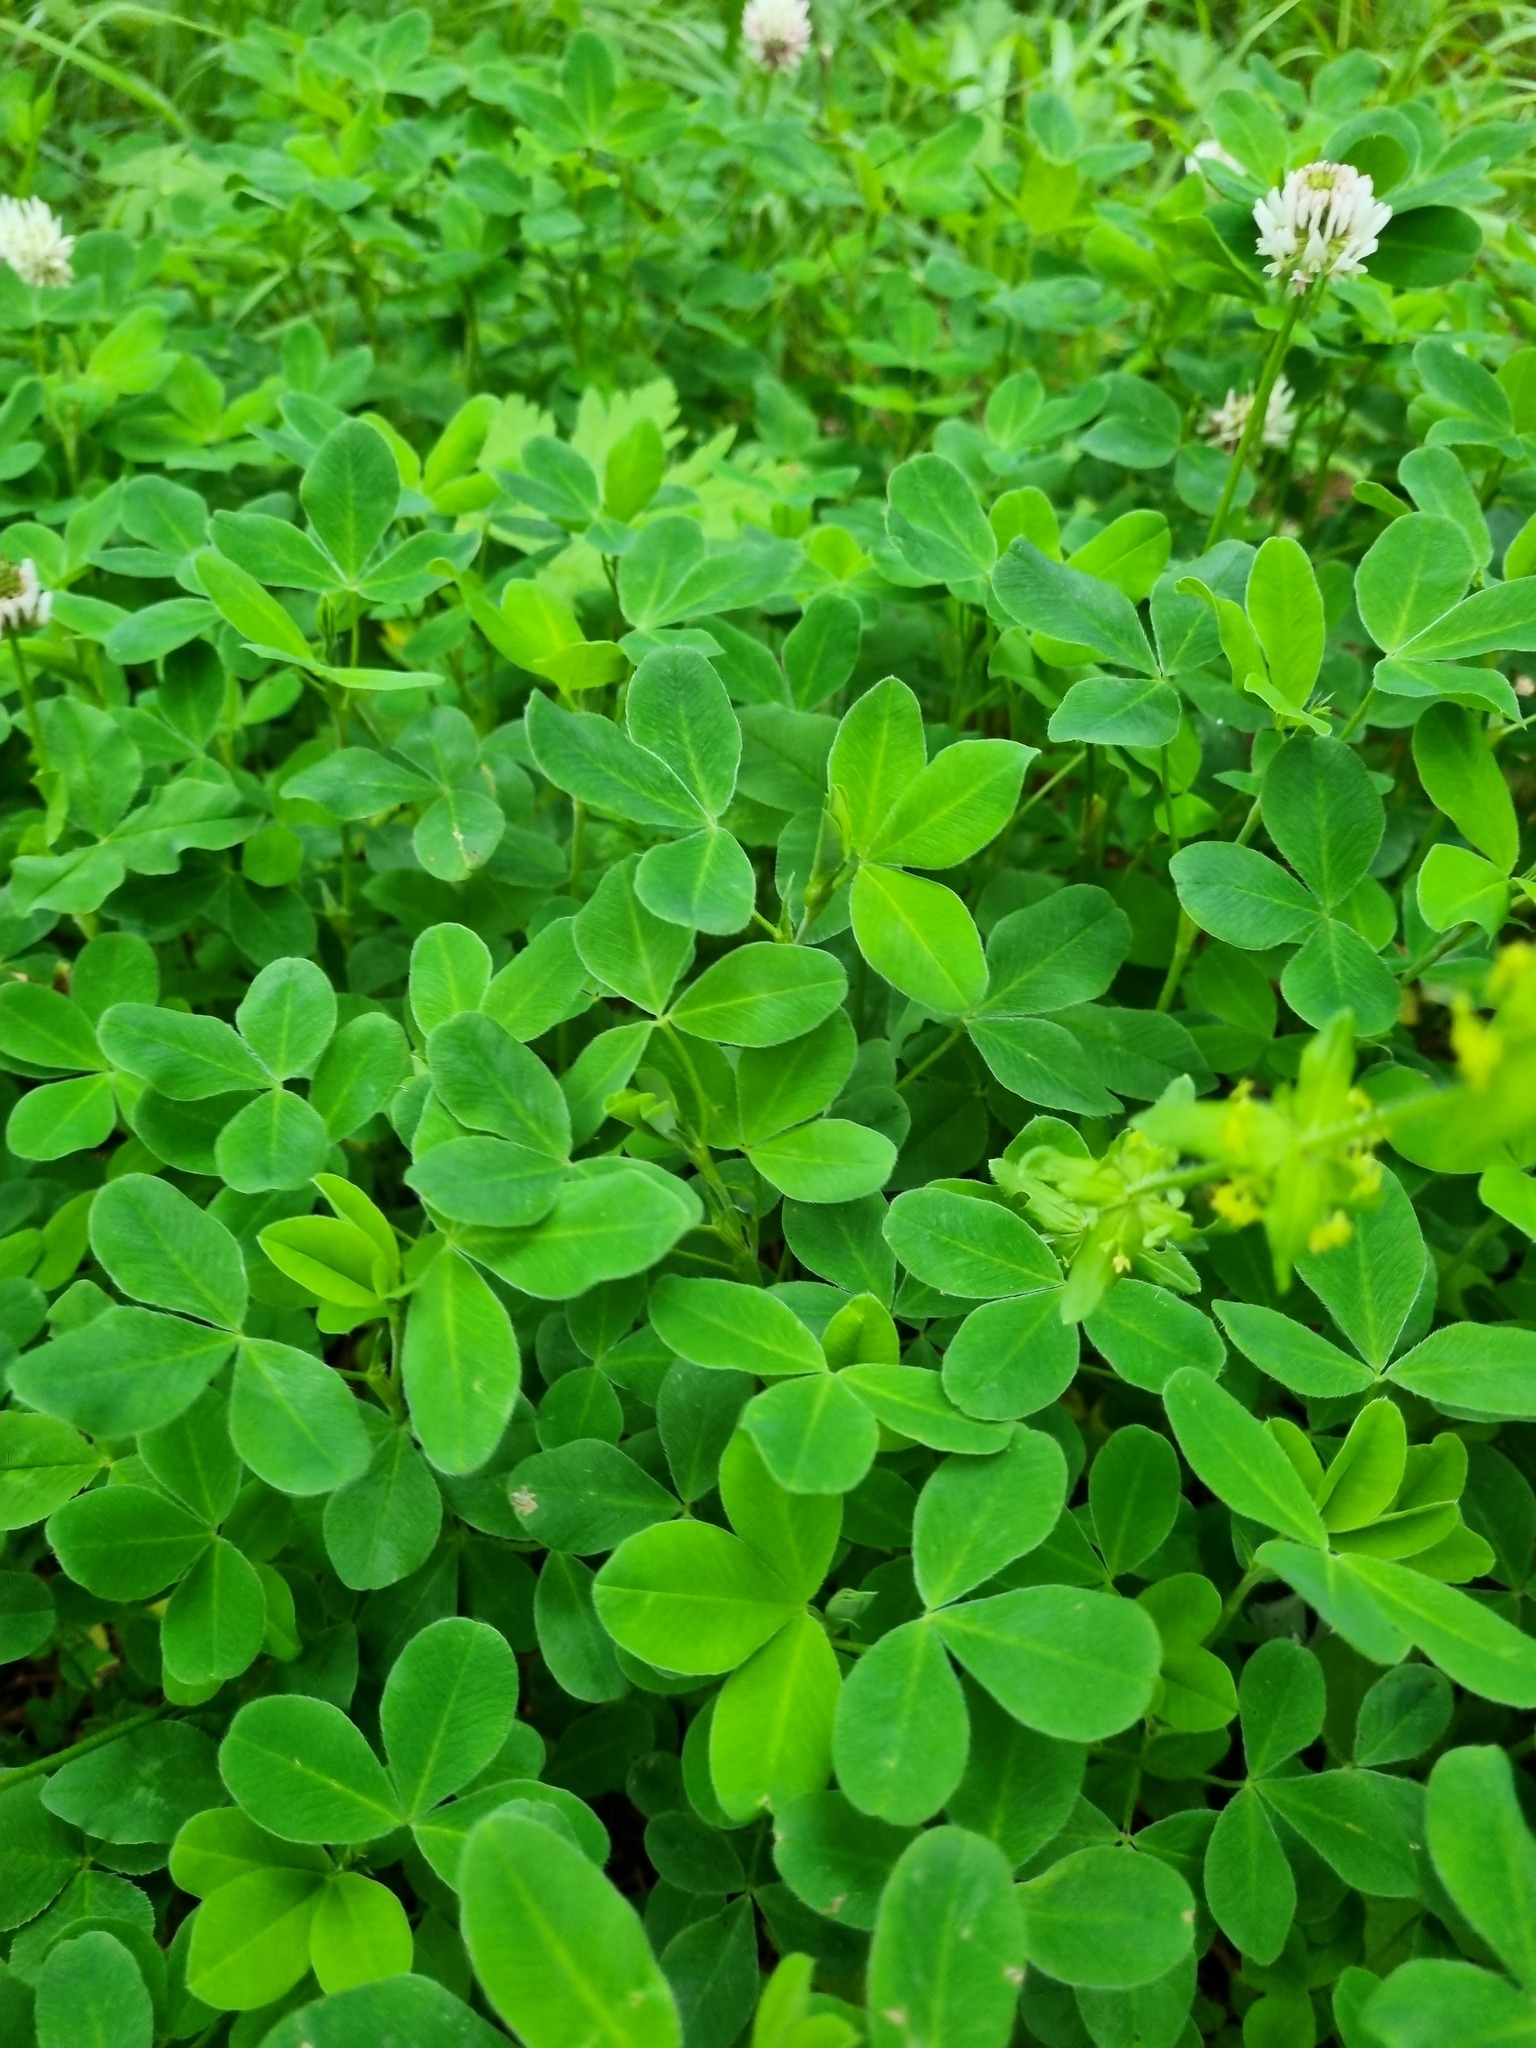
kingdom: Plantae
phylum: Tracheophyta
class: Magnoliopsida
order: Fabales
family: Fabaceae
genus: Trifolium
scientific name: Trifolium ambiguum
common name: Kura clover
